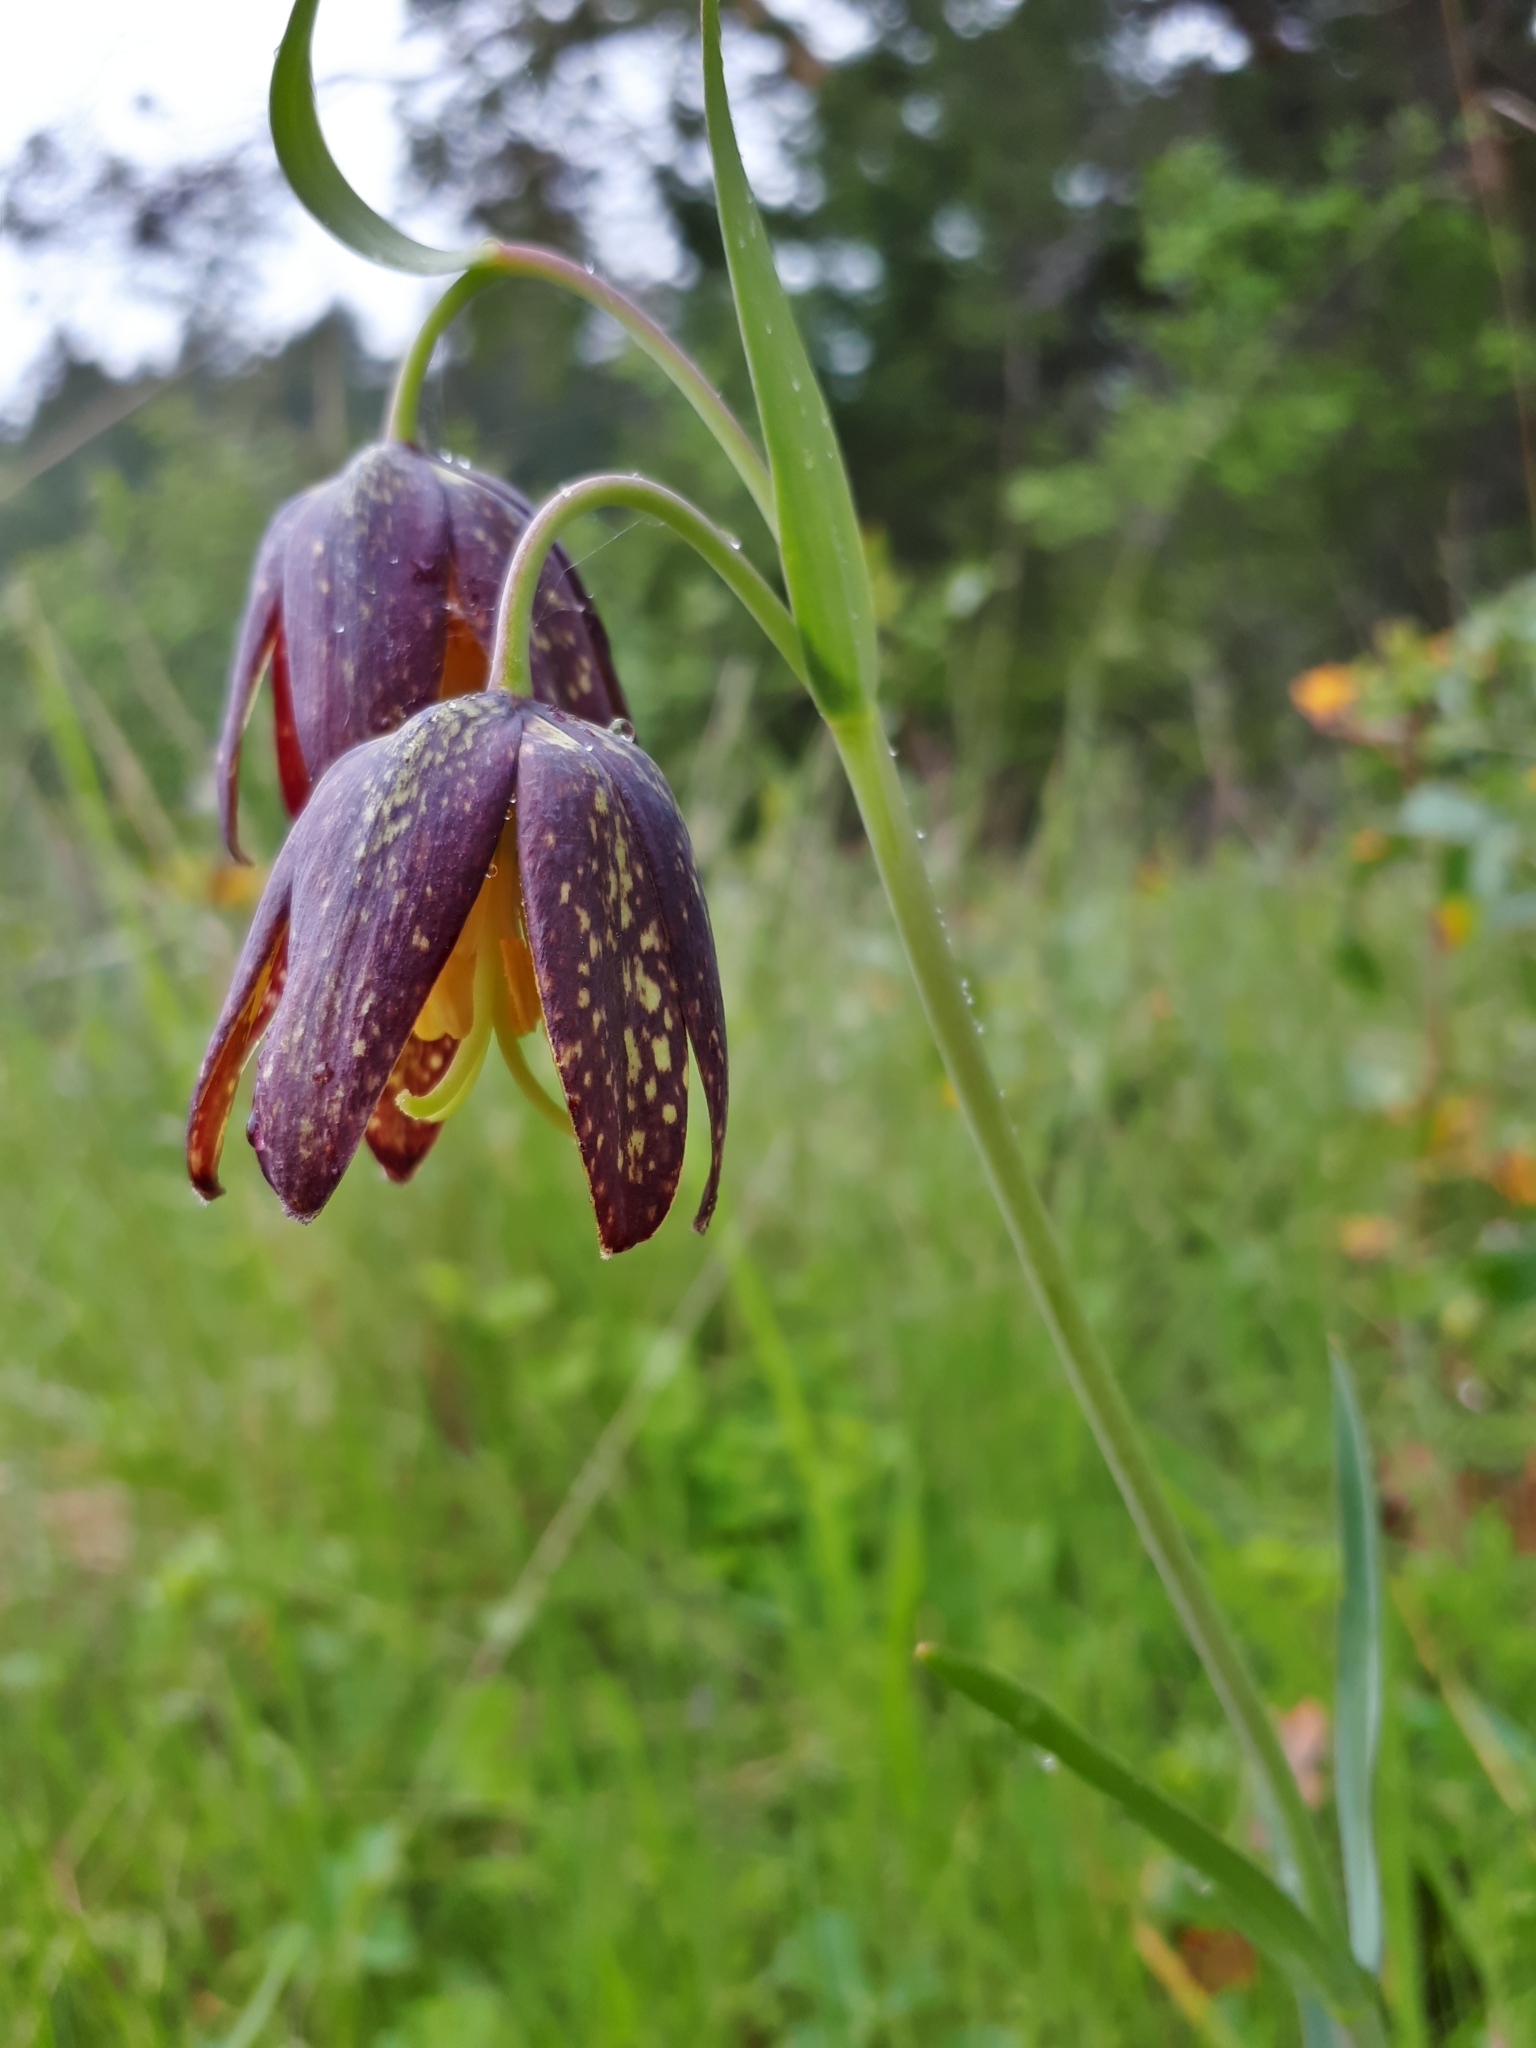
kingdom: Plantae
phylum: Tracheophyta
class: Liliopsida
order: Liliales
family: Liliaceae
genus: Fritillaria
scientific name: Fritillaria affinis
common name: Ojai fritillary
